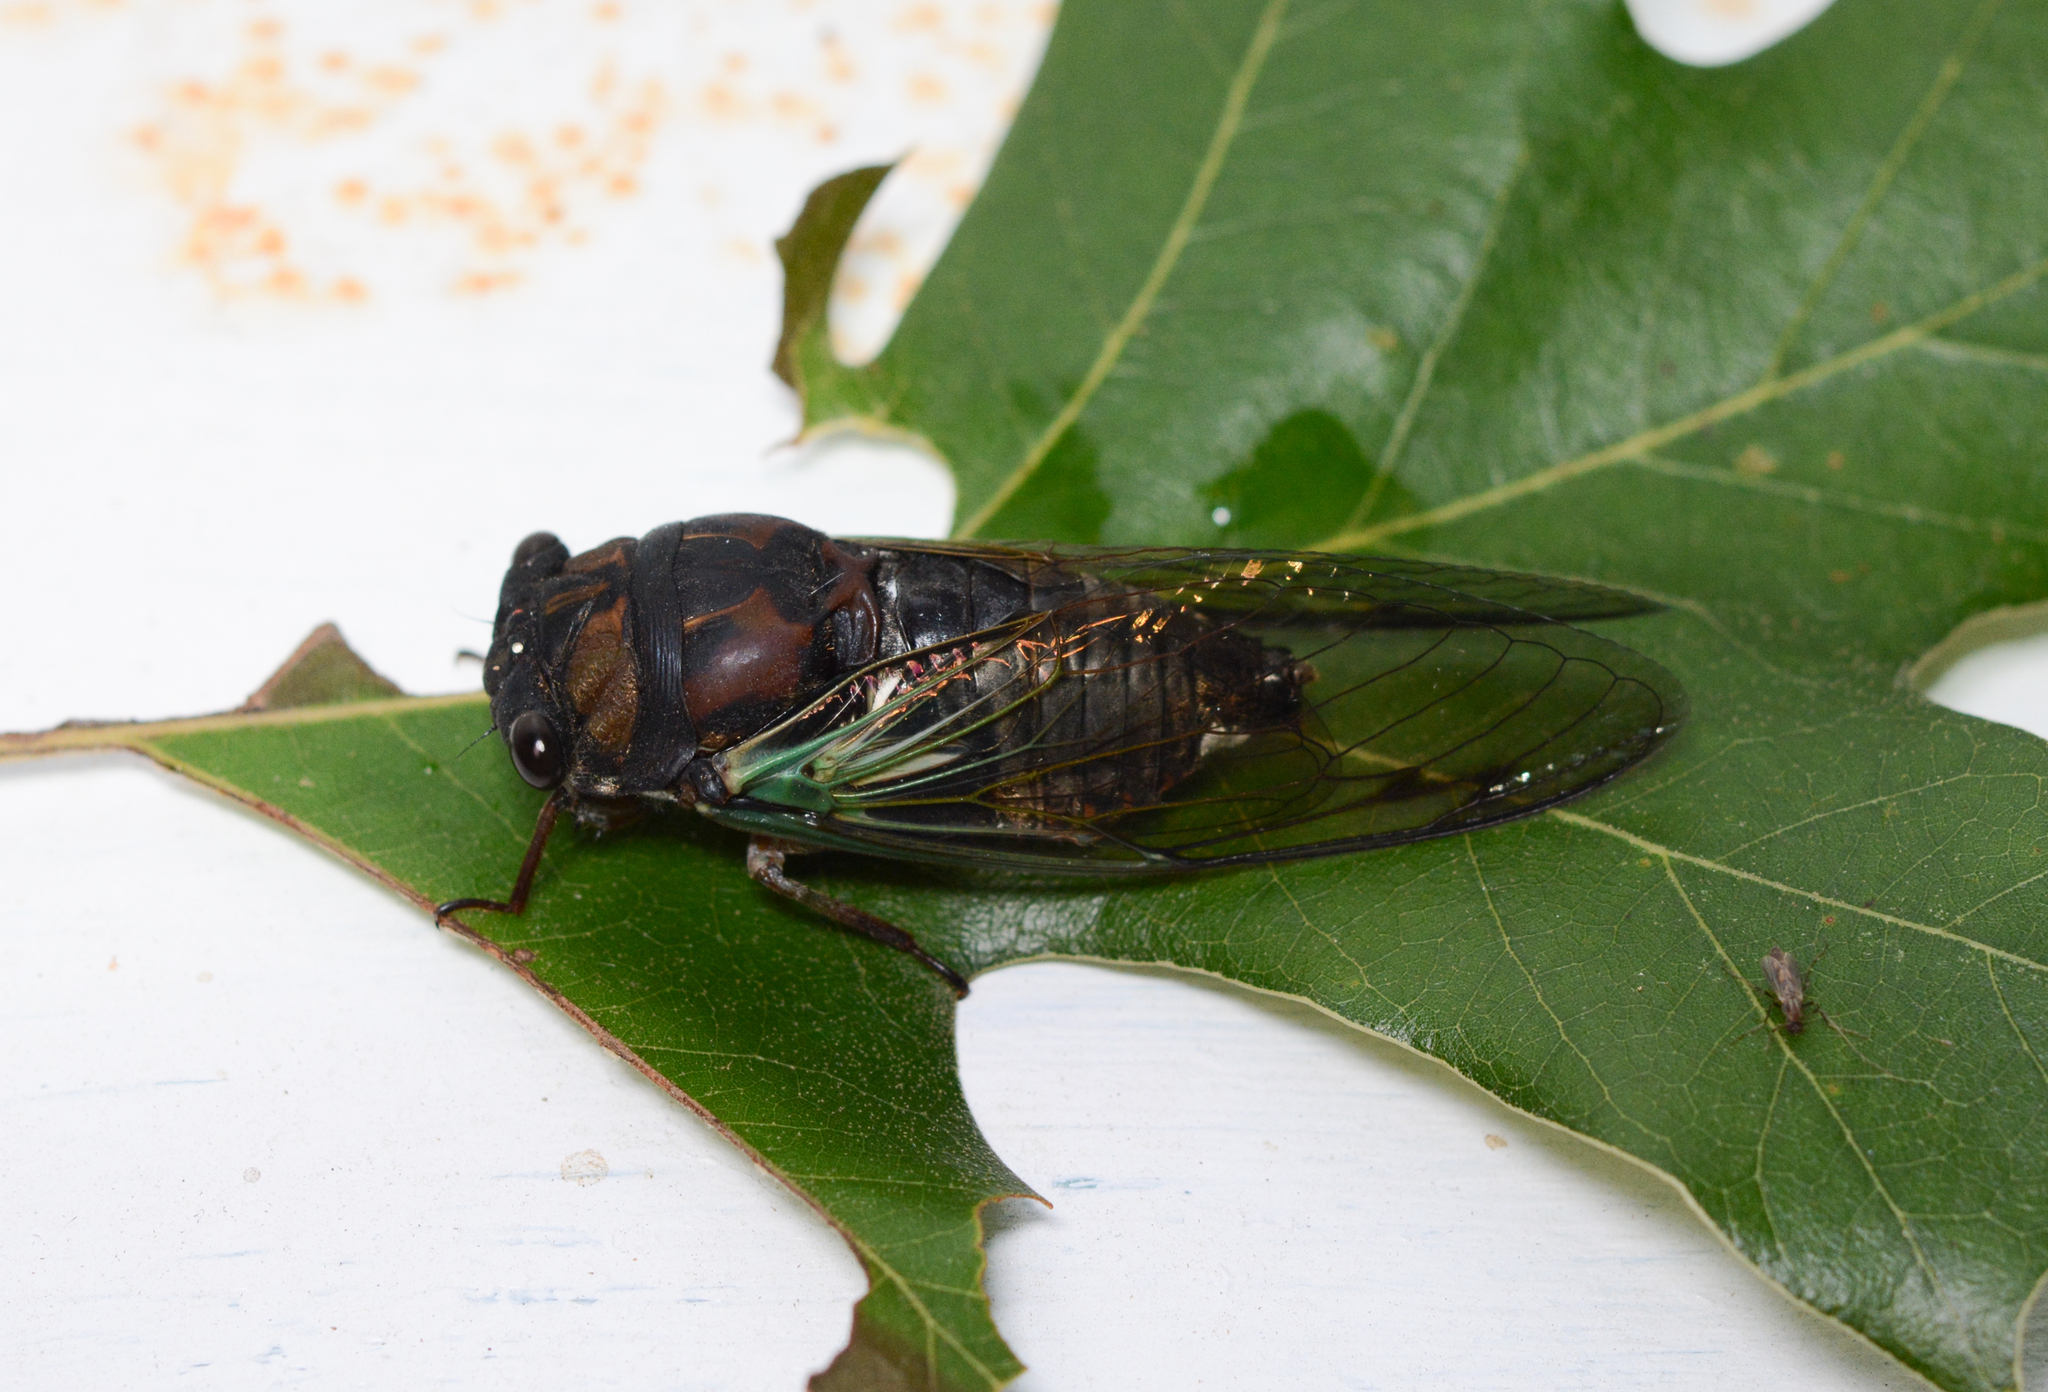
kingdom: Animalia
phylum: Arthropoda
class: Insecta
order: Hemiptera
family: Cicadidae
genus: Neotibicen
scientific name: Neotibicen lyricen
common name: Lyric cicada
